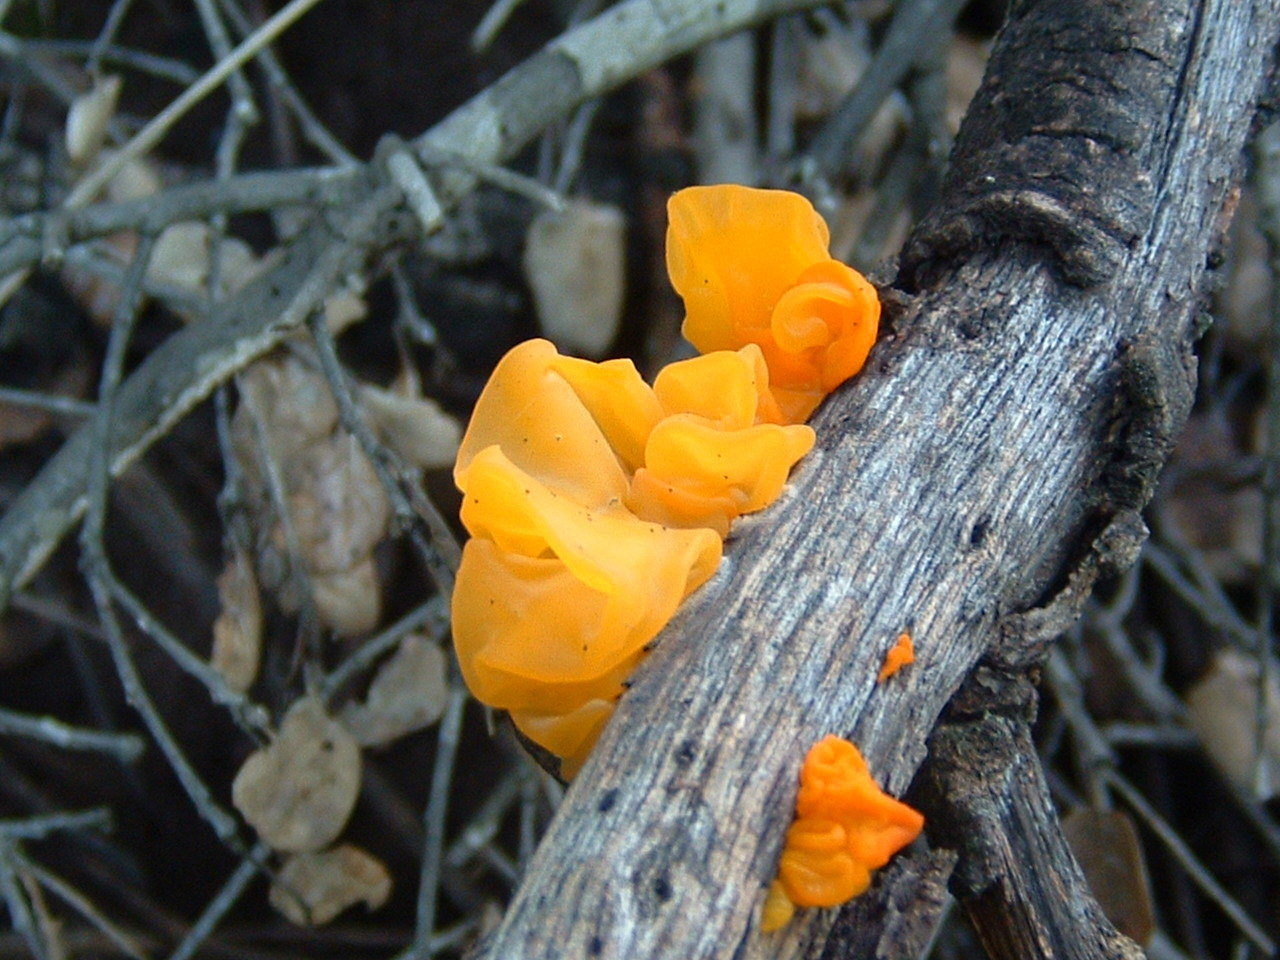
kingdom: Fungi
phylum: Basidiomycota
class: Tremellomycetes
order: Tremellales
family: Naemateliaceae
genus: Naematelia
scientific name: Naematelia aurantia
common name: Golden ear
